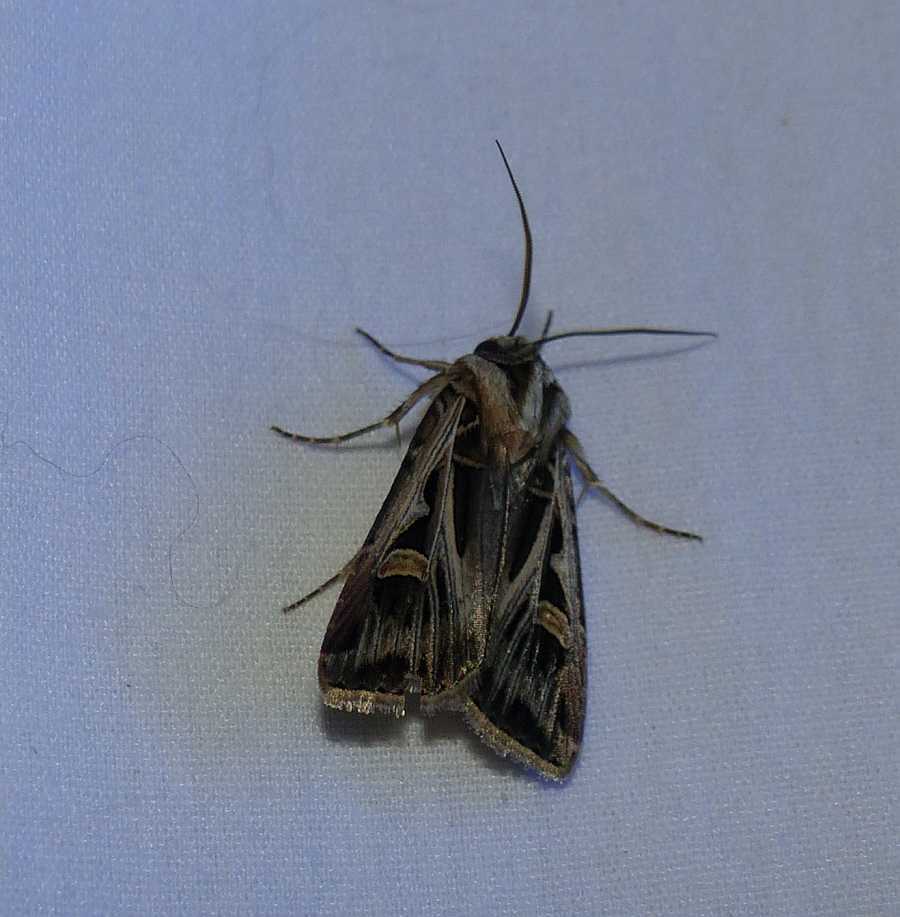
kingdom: Animalia
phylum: Arthropoda
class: Insecta
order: Lepidoptera
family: Noctuidae
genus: Feltia
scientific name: Feltia jaculifera
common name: Dingy cutworm moth
